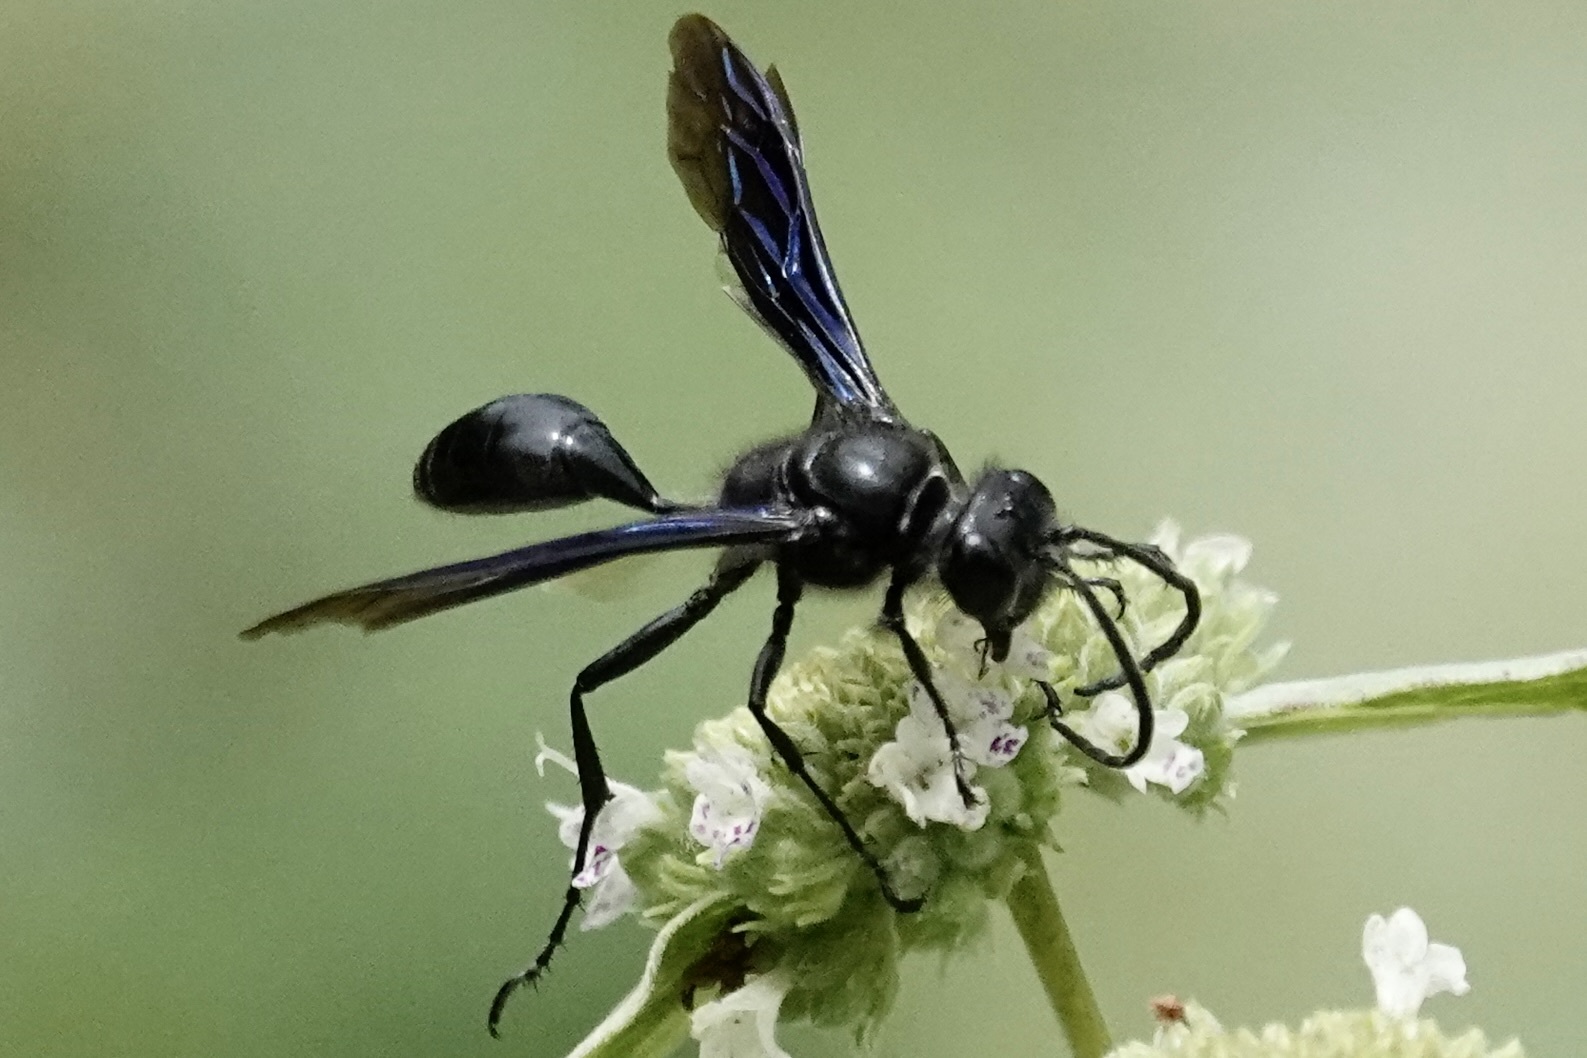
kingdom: Animalia
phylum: Arthropoda
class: Insecta
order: Hymenoptera
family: Sphecidae
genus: Isodontia
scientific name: Isodontia philadelphica
